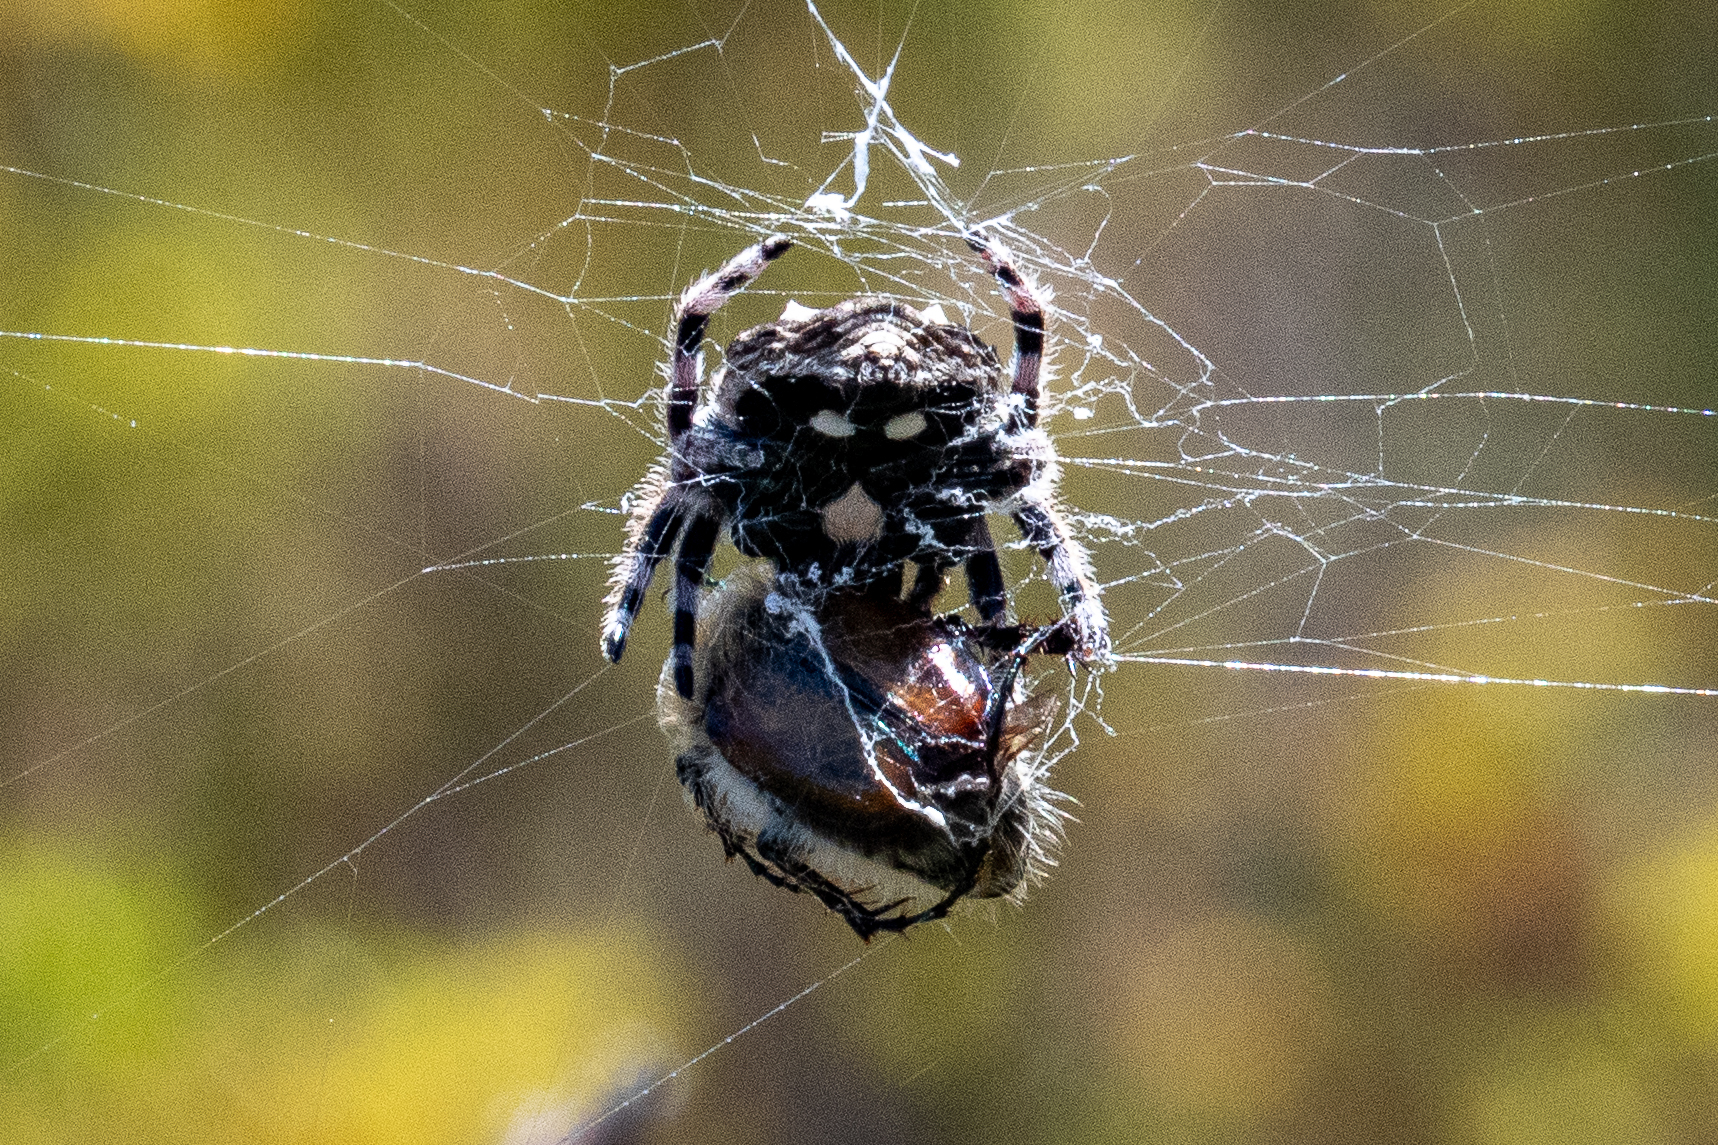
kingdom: Animalia
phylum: Arthropoda
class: Arachnida
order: Araneae
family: Araneidae
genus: Caerostris
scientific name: Caerostris sexcuspidata
